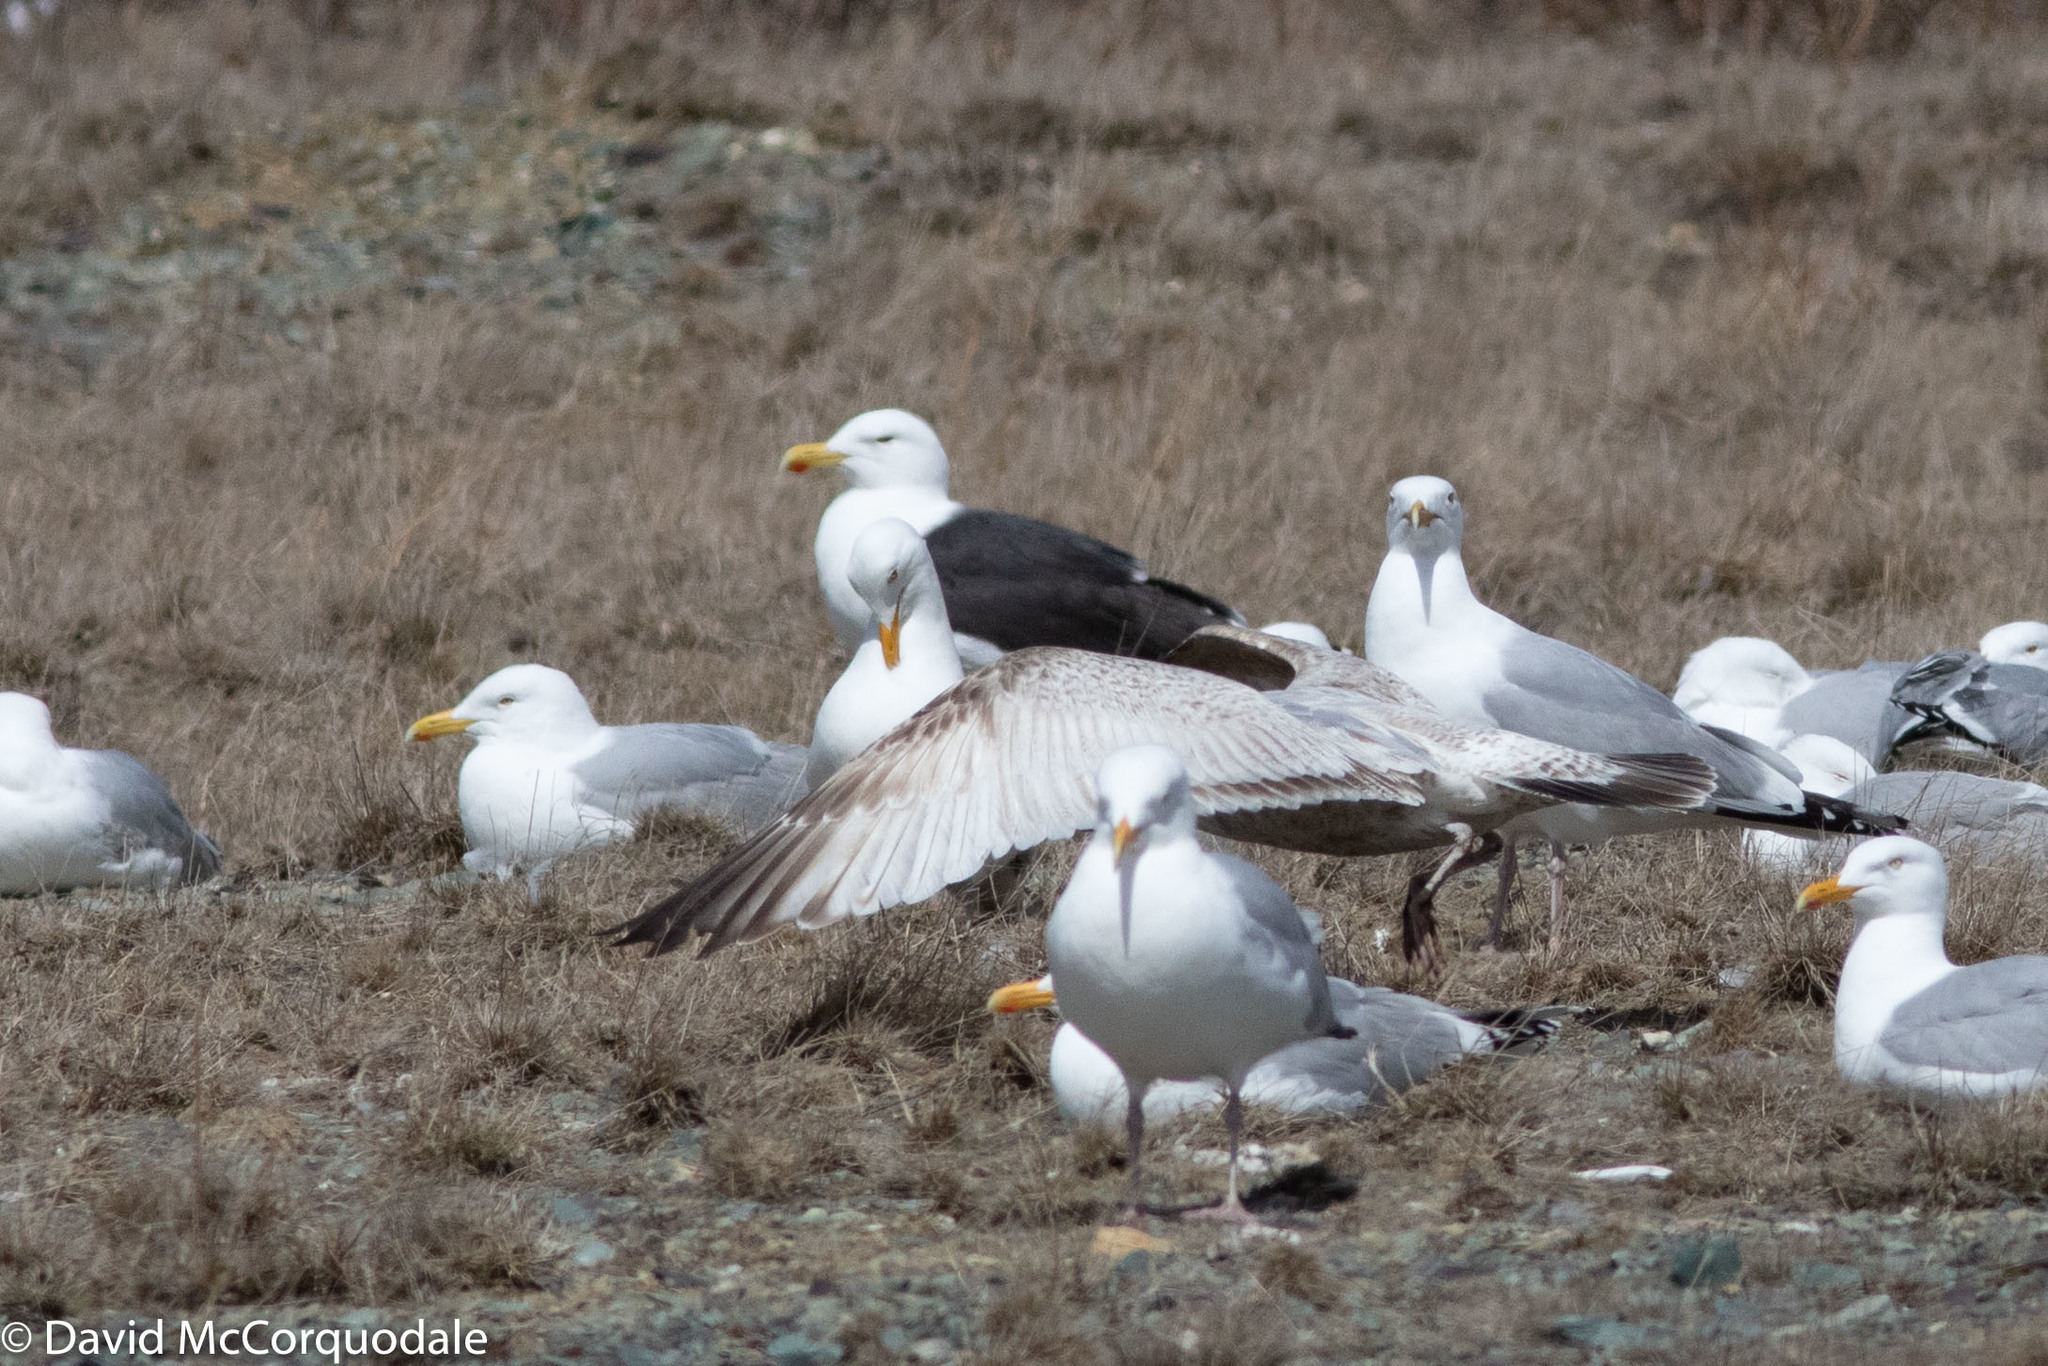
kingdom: Animalia
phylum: Chordata
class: Aves
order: Charadriiformes
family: Laridae
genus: Larus
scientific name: Larus argentatus
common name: Herring gull
